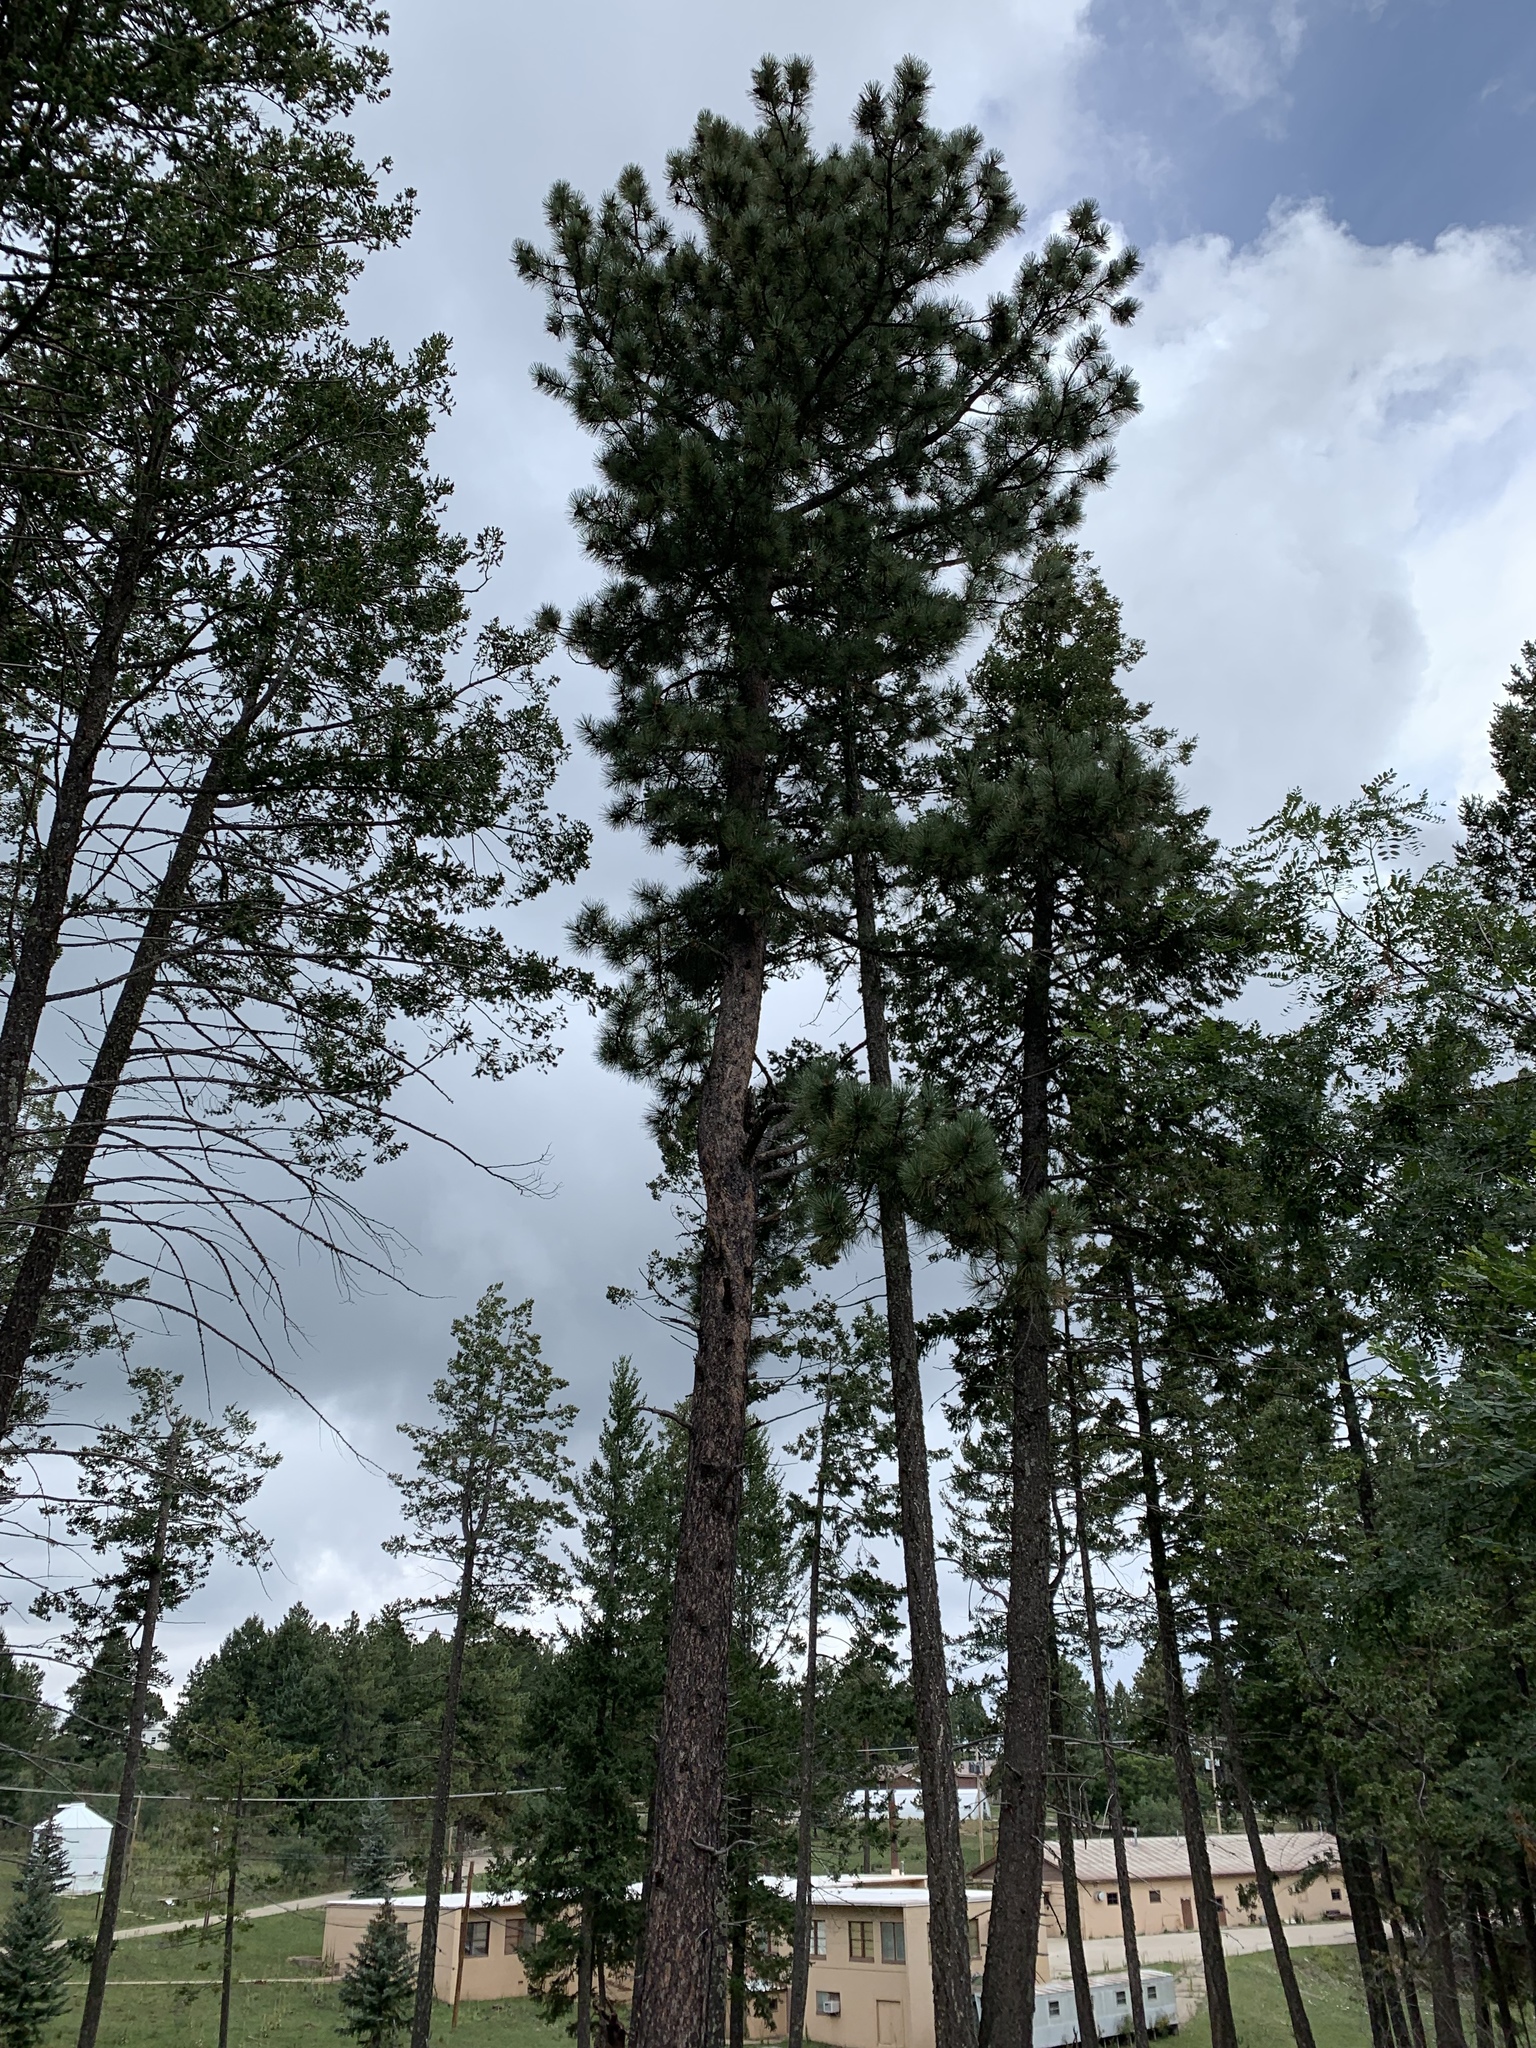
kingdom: Plantae
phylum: Tracheophyta
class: Pinopsida
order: Pinales
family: Pinaceae
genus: Pinus
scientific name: Pinus ponderosa
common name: Western yellow-pine
